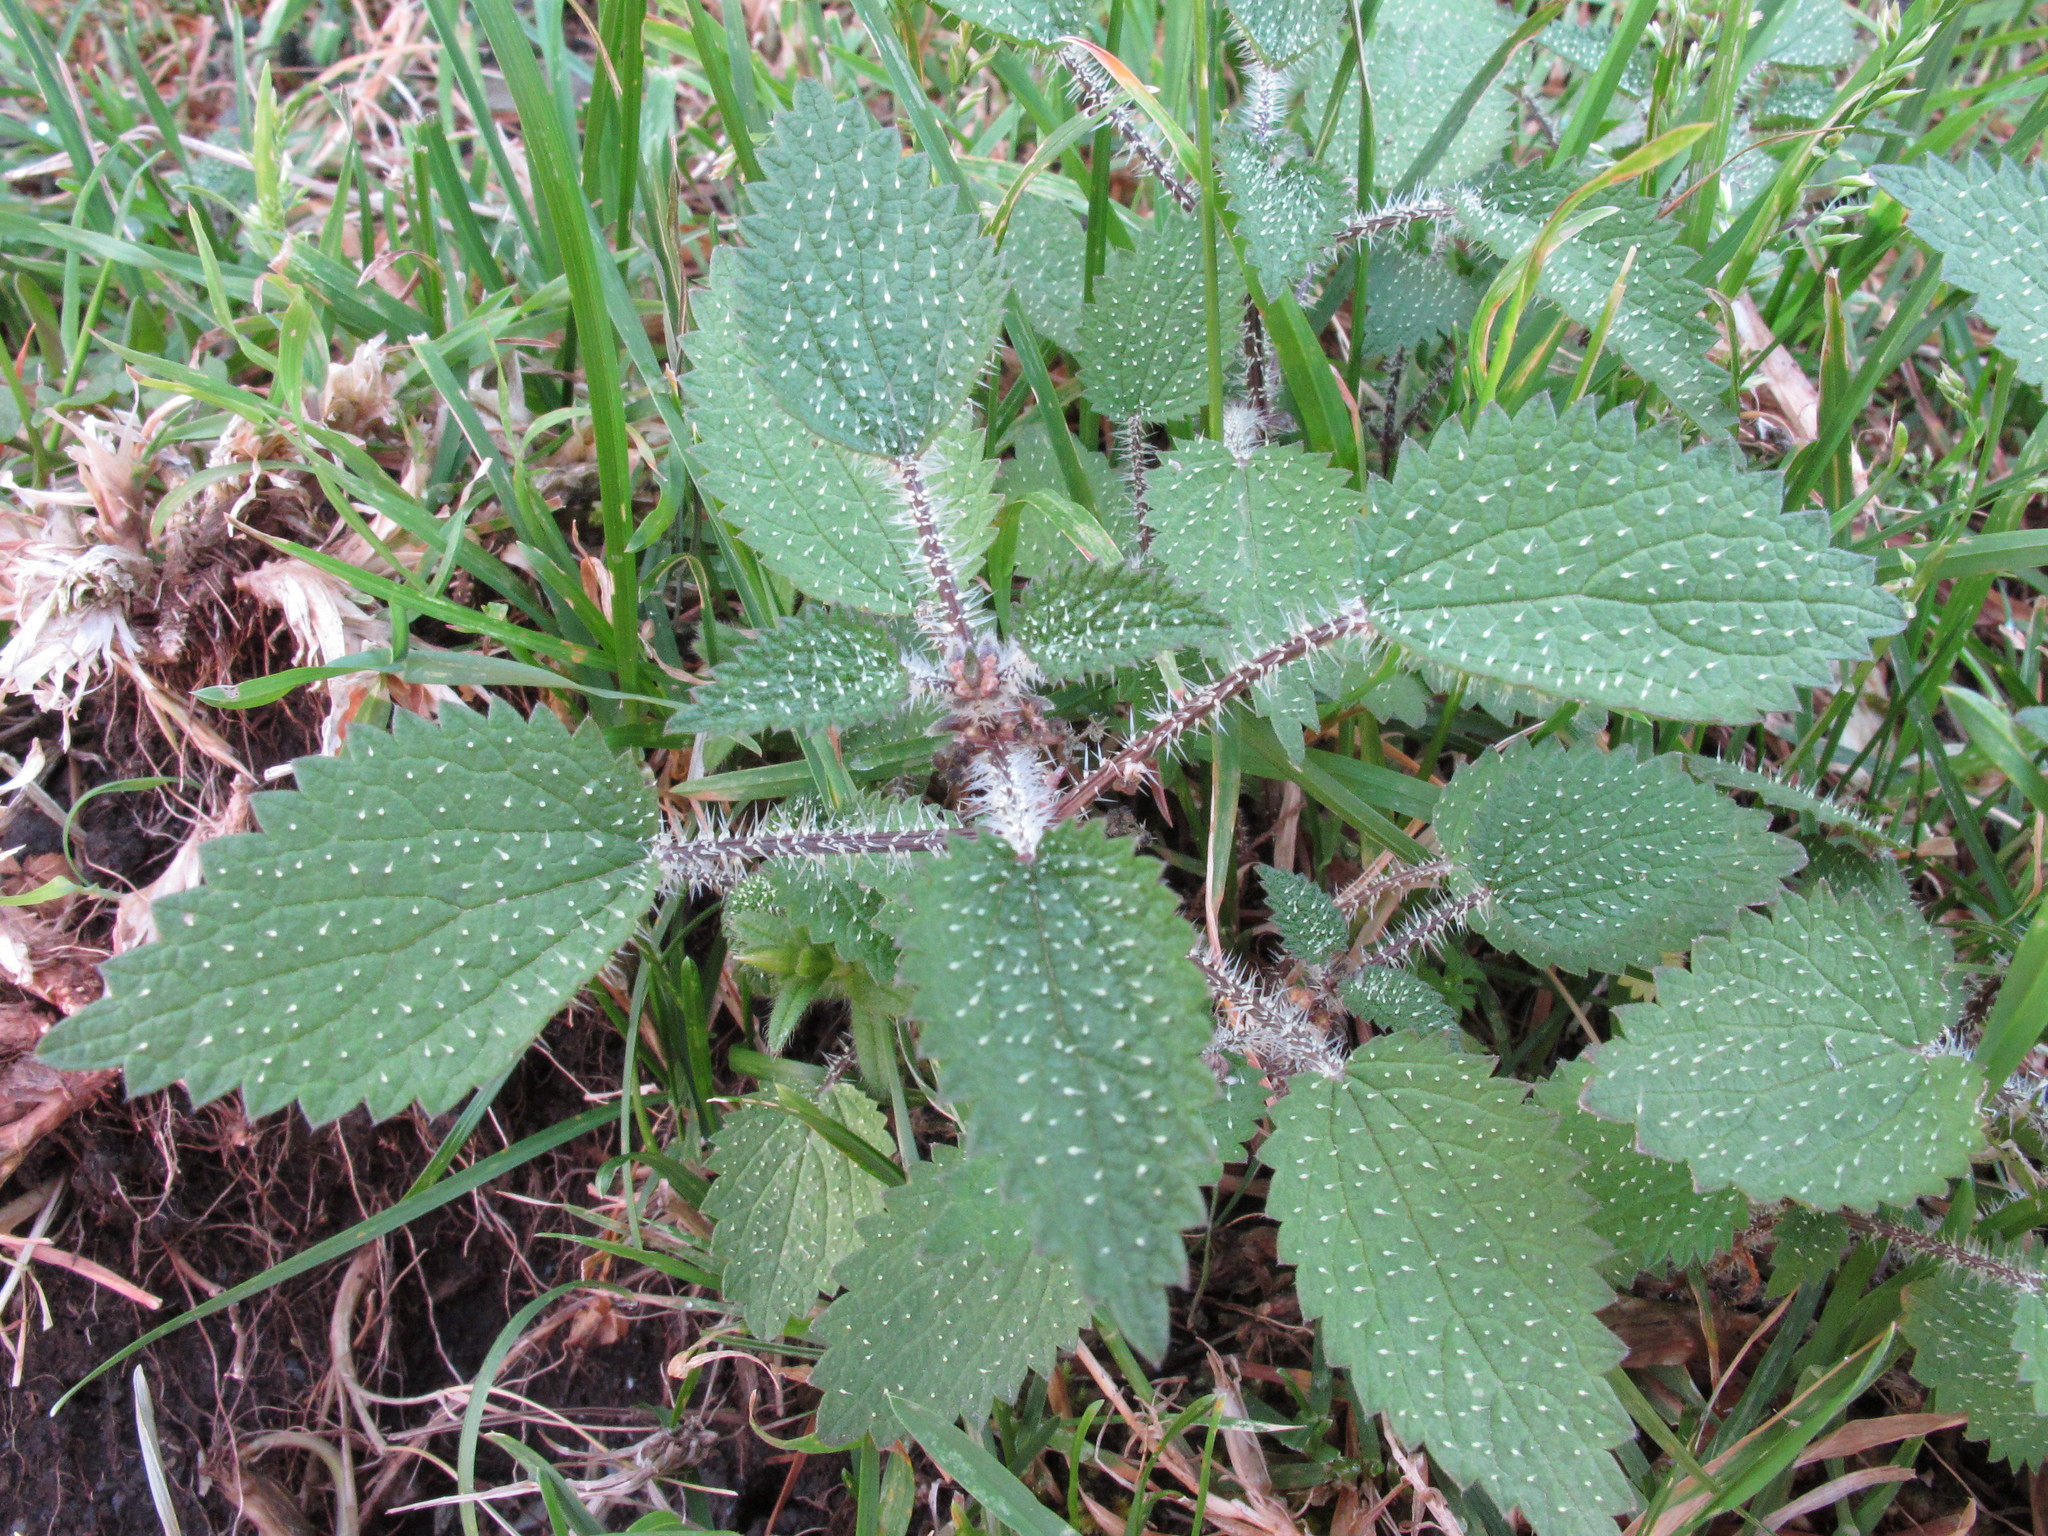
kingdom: Plantae
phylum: Tracheophyta
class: Magnoliopsida
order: Rosales
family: Urticaceae
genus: Urtica
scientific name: Urtica aspera
